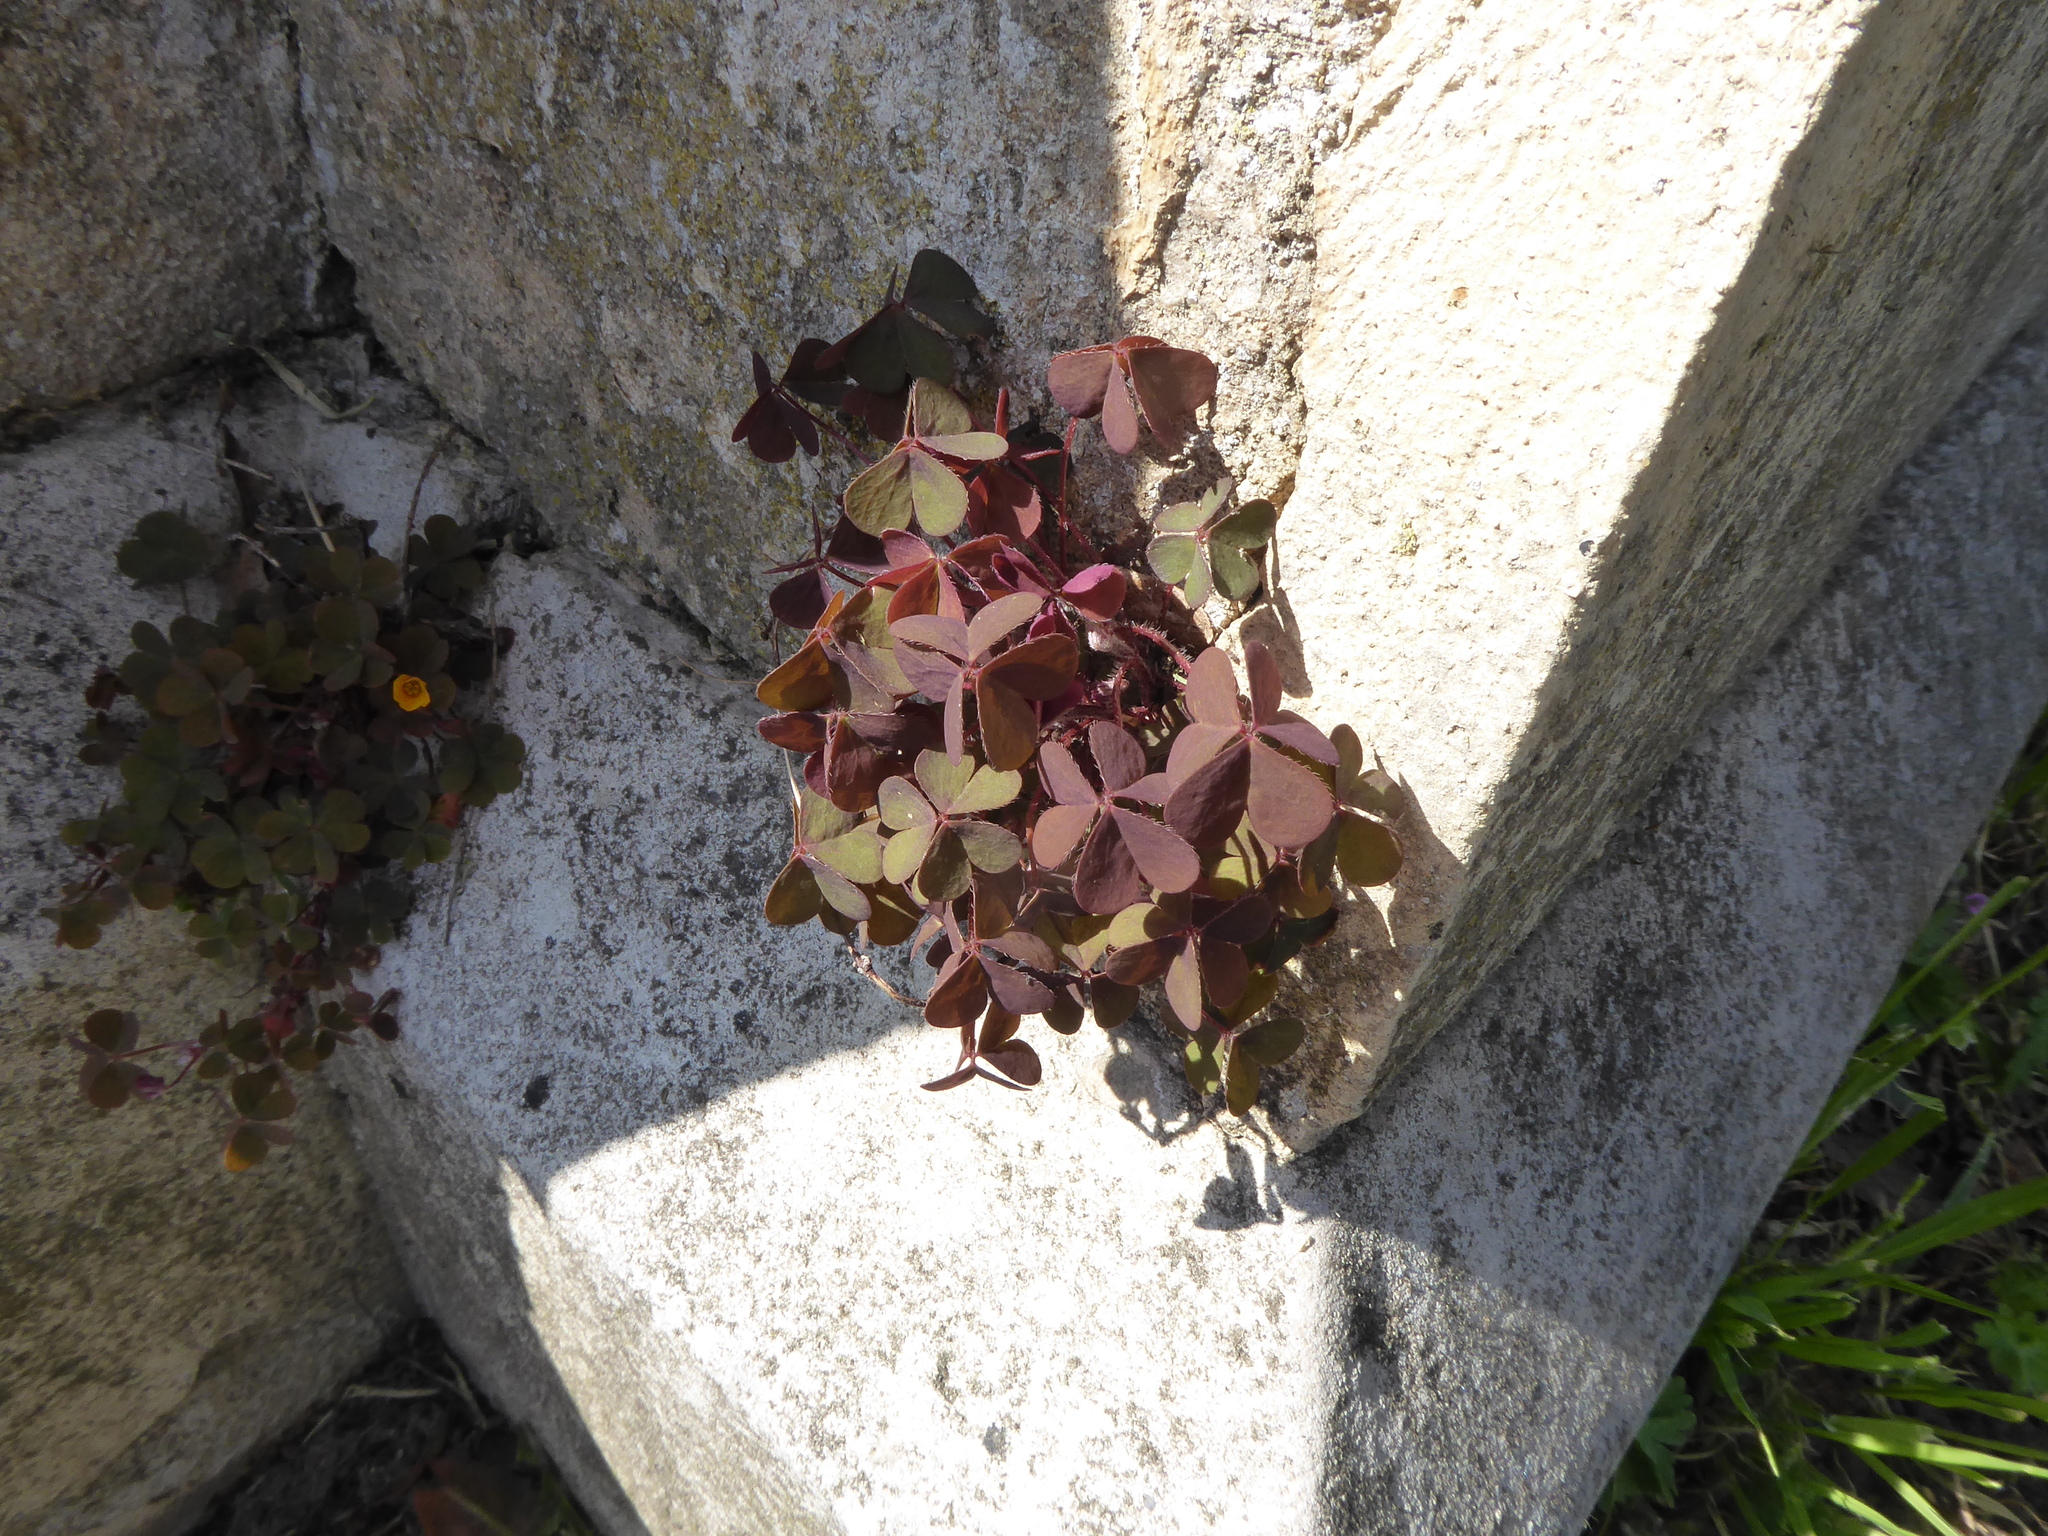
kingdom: Plantae
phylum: Tracheophyta
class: Magnoliopsida
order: Oxalidales
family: Oxalidaceae
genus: Oxalis
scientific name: Oxalis corniculata
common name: Procumbent yellow-sorrel
